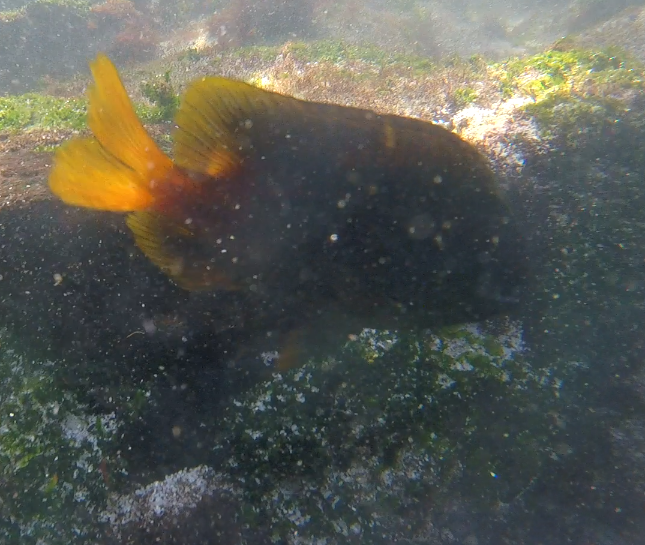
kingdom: Animalia
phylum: Chordata
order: Perciformes
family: Pomacentridae
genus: Stegastes
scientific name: Stegastes arcifrons
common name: Galapagos gregory
